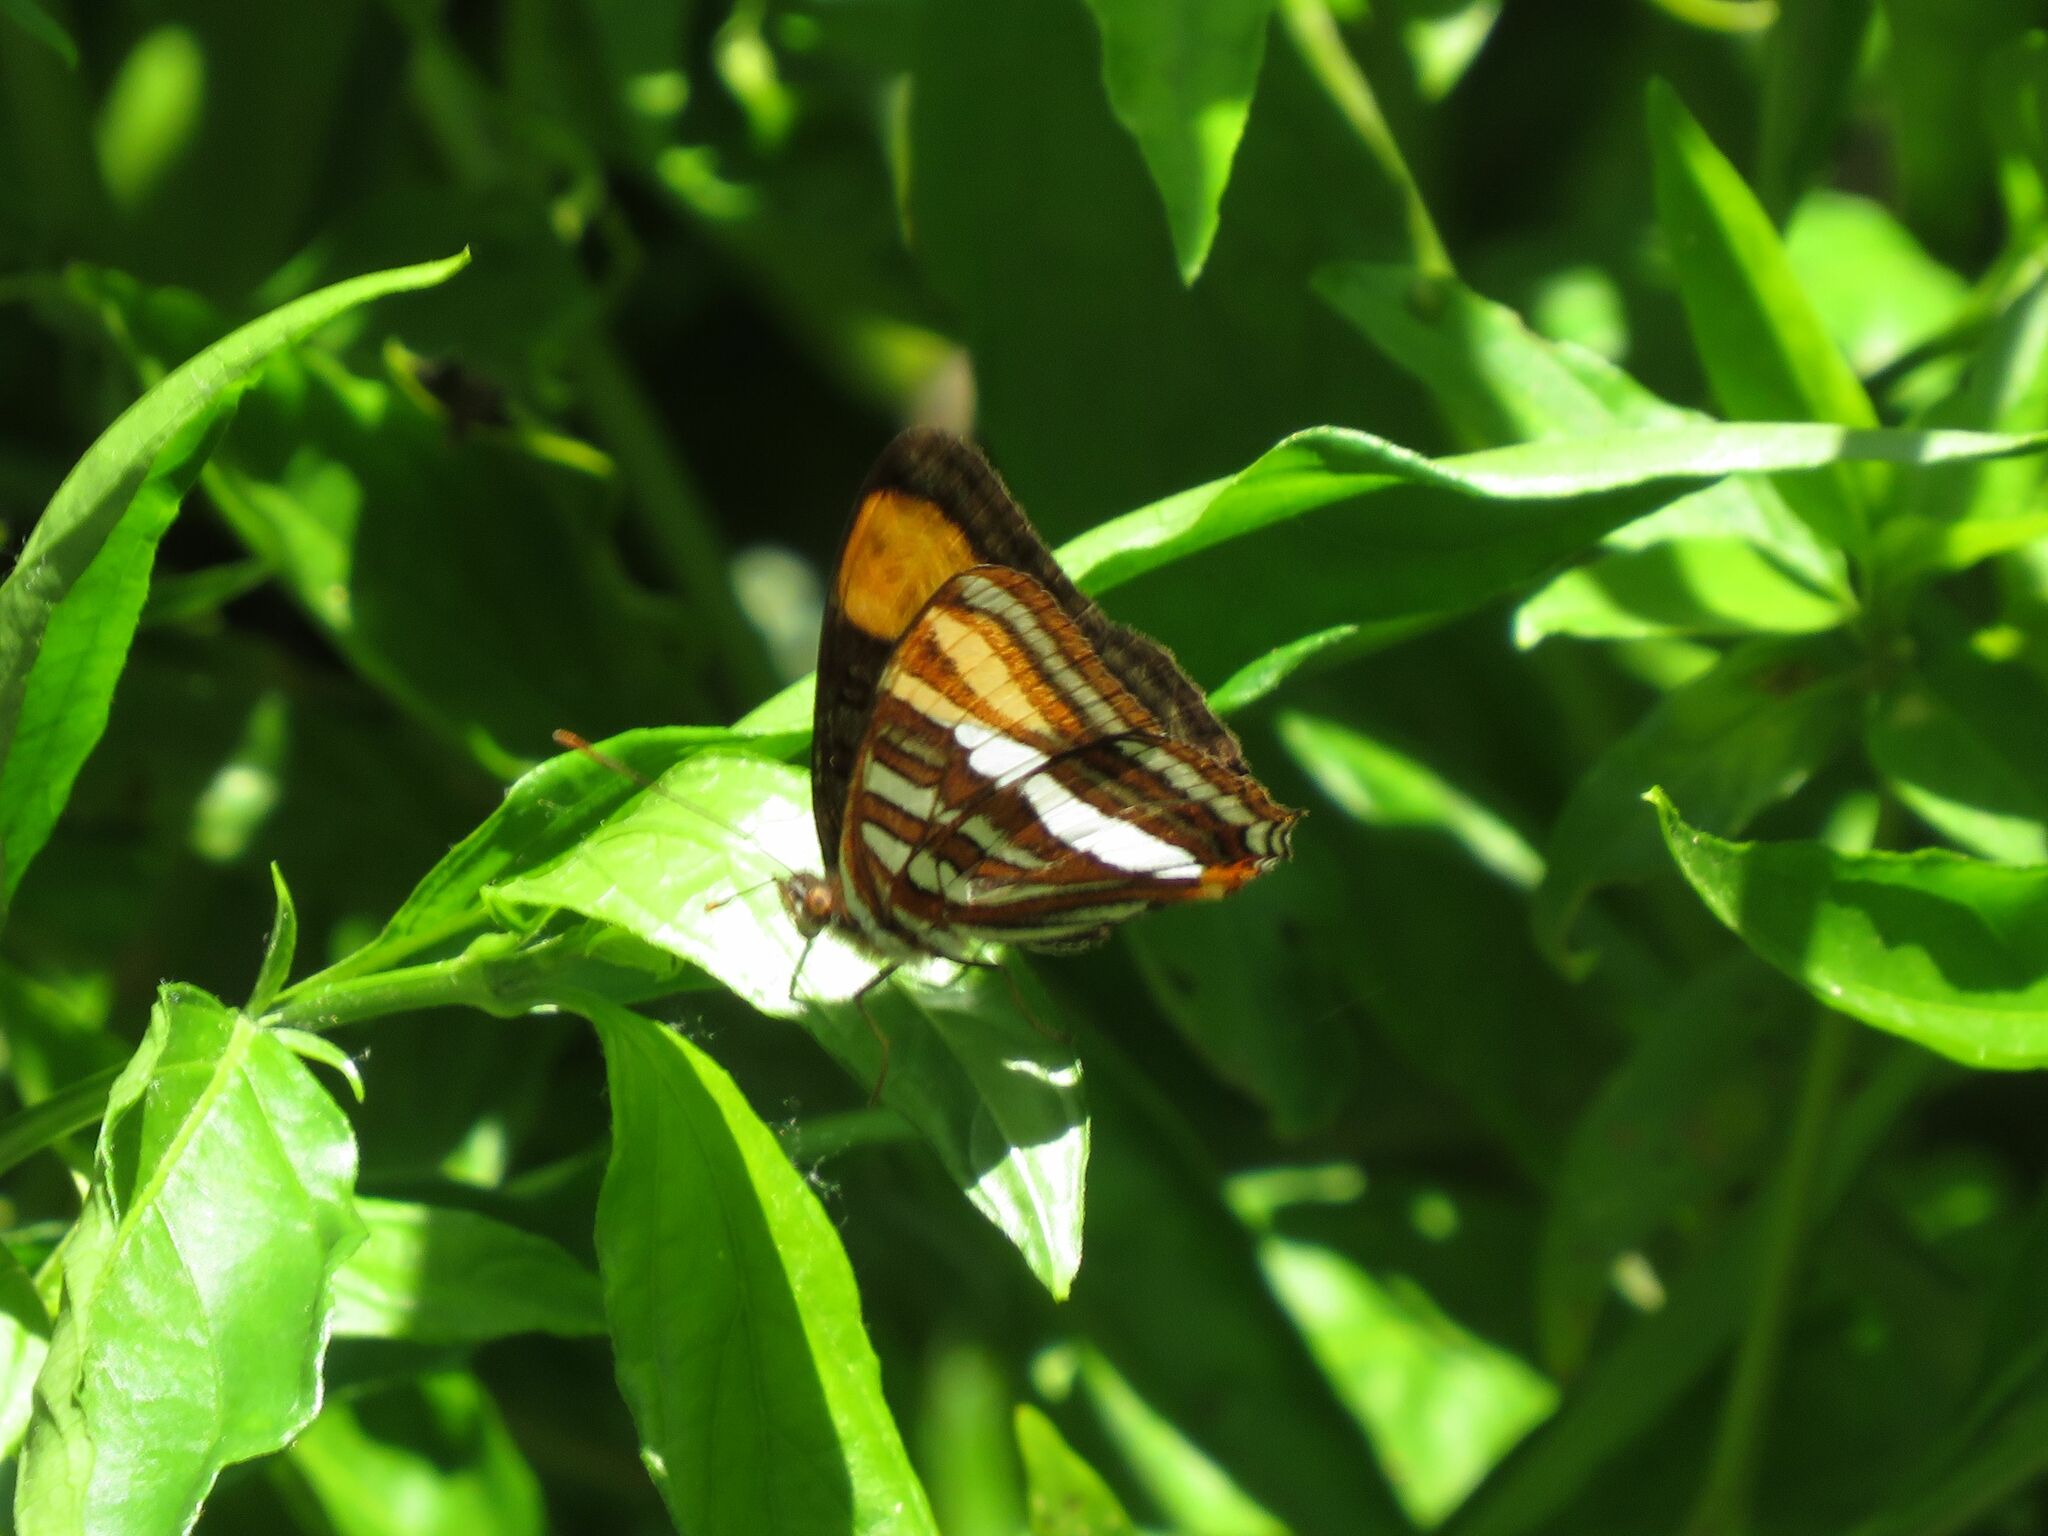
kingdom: Animalia
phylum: Arthropoda
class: Insecta
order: Lepidoptera
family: Nymphalidae
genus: Limenitis
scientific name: Limenitis syma
